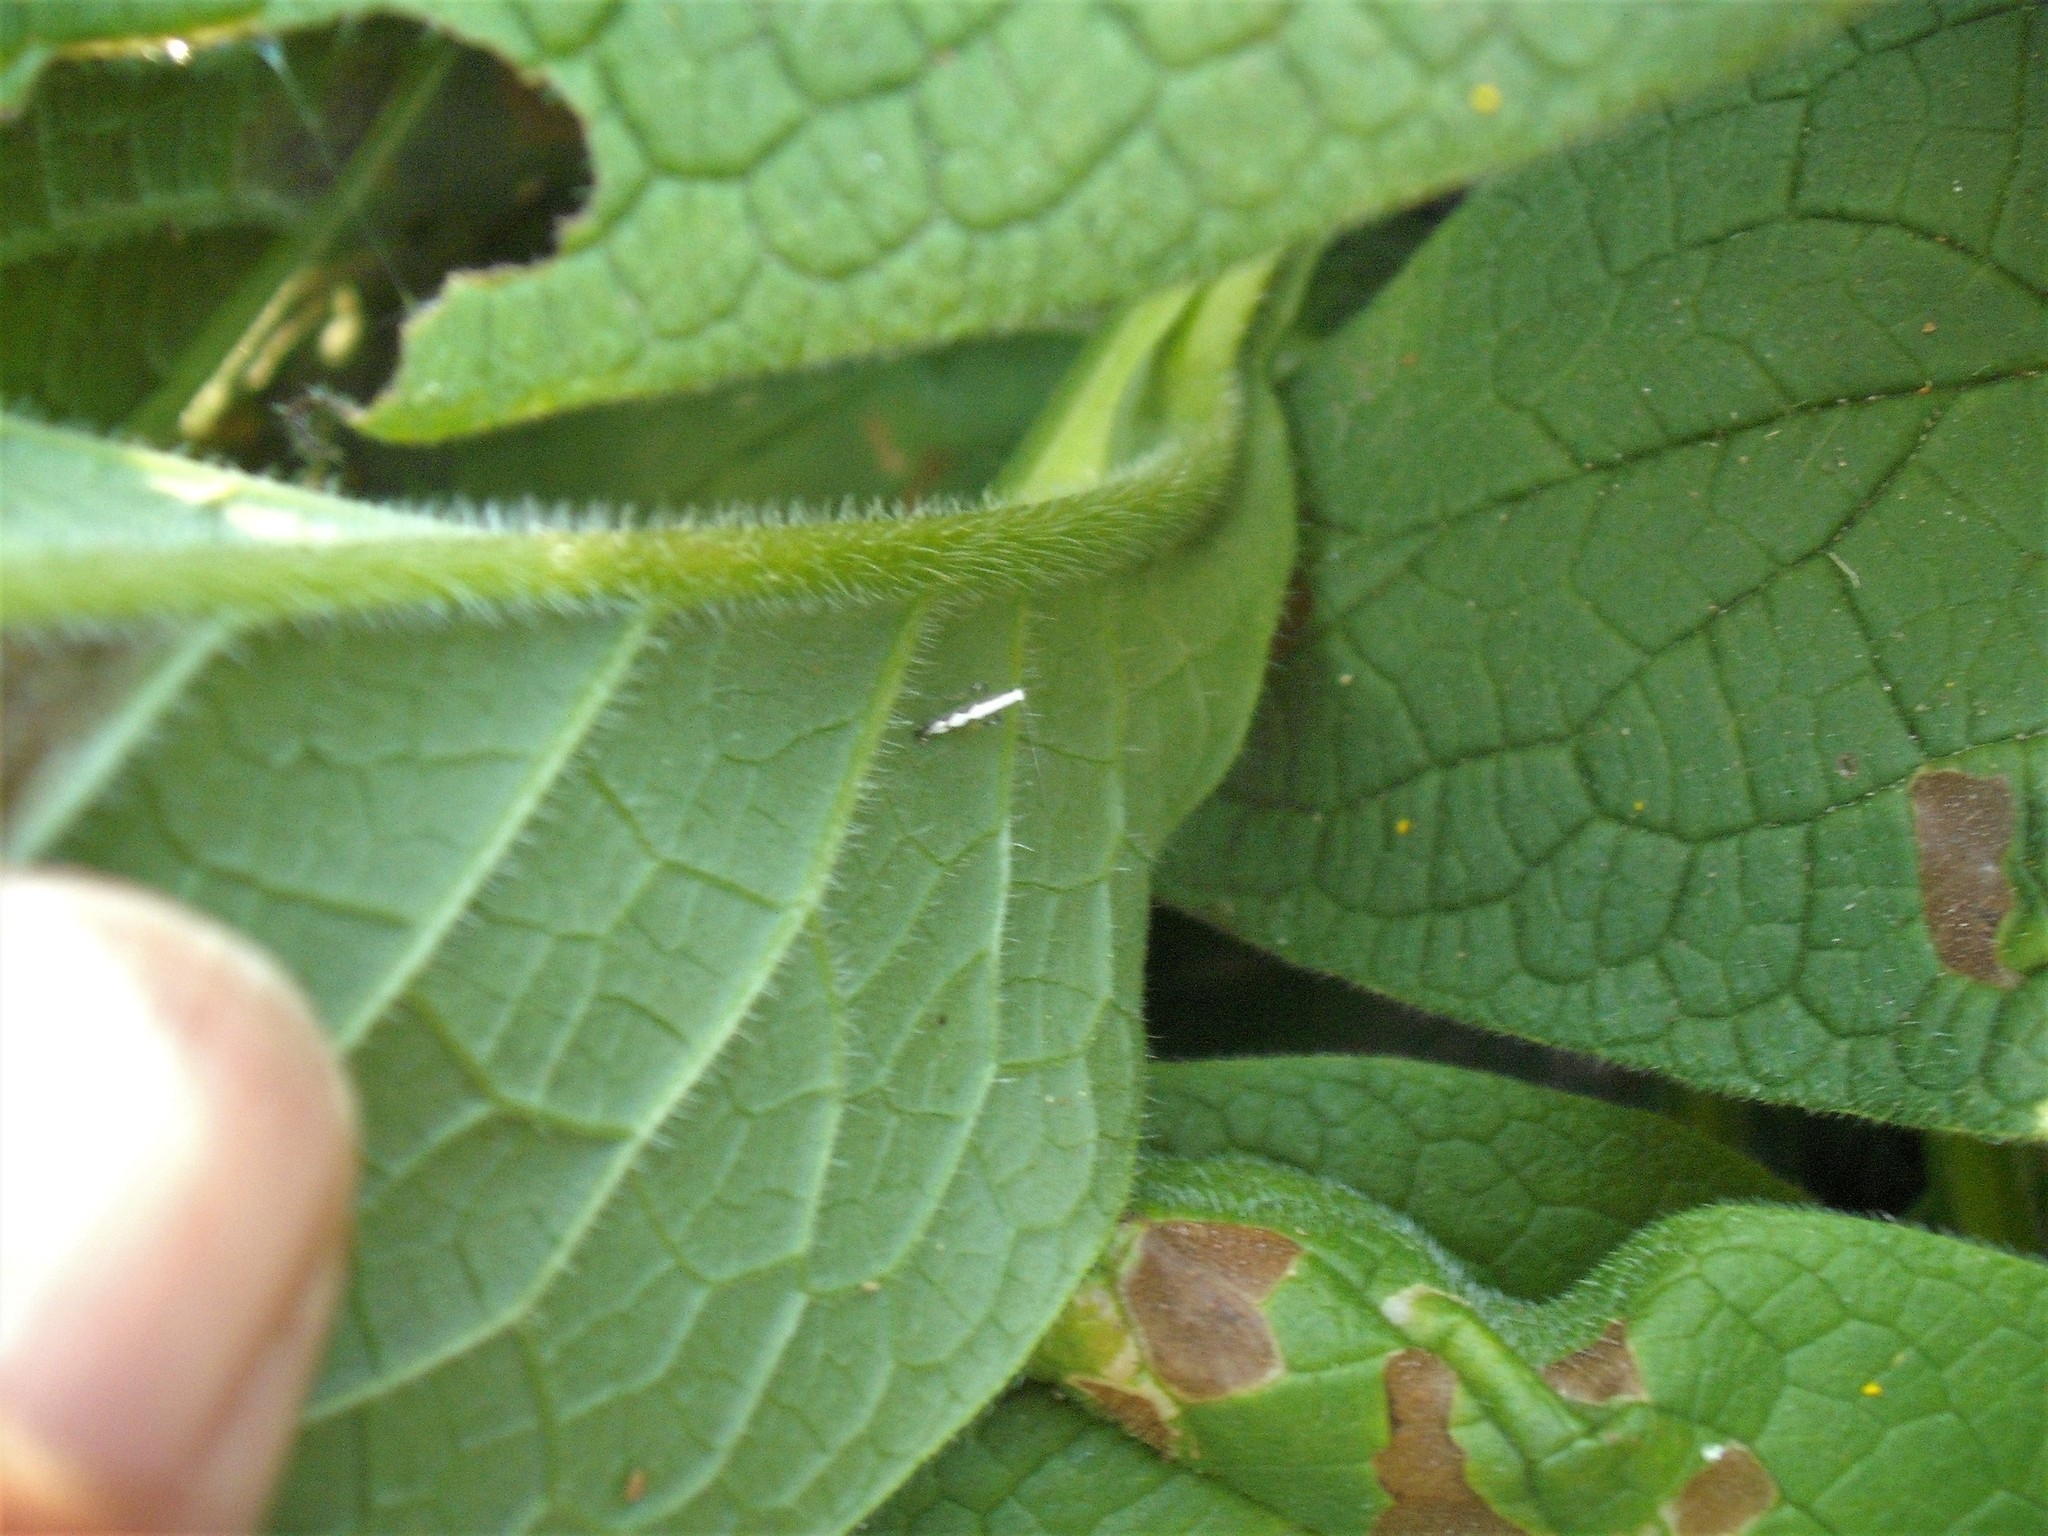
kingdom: Animalia
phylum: Arthropoda
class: Insecta
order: Lepidoptera
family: Gracillariidae
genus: Dialectica
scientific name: Dialectica scalariella
